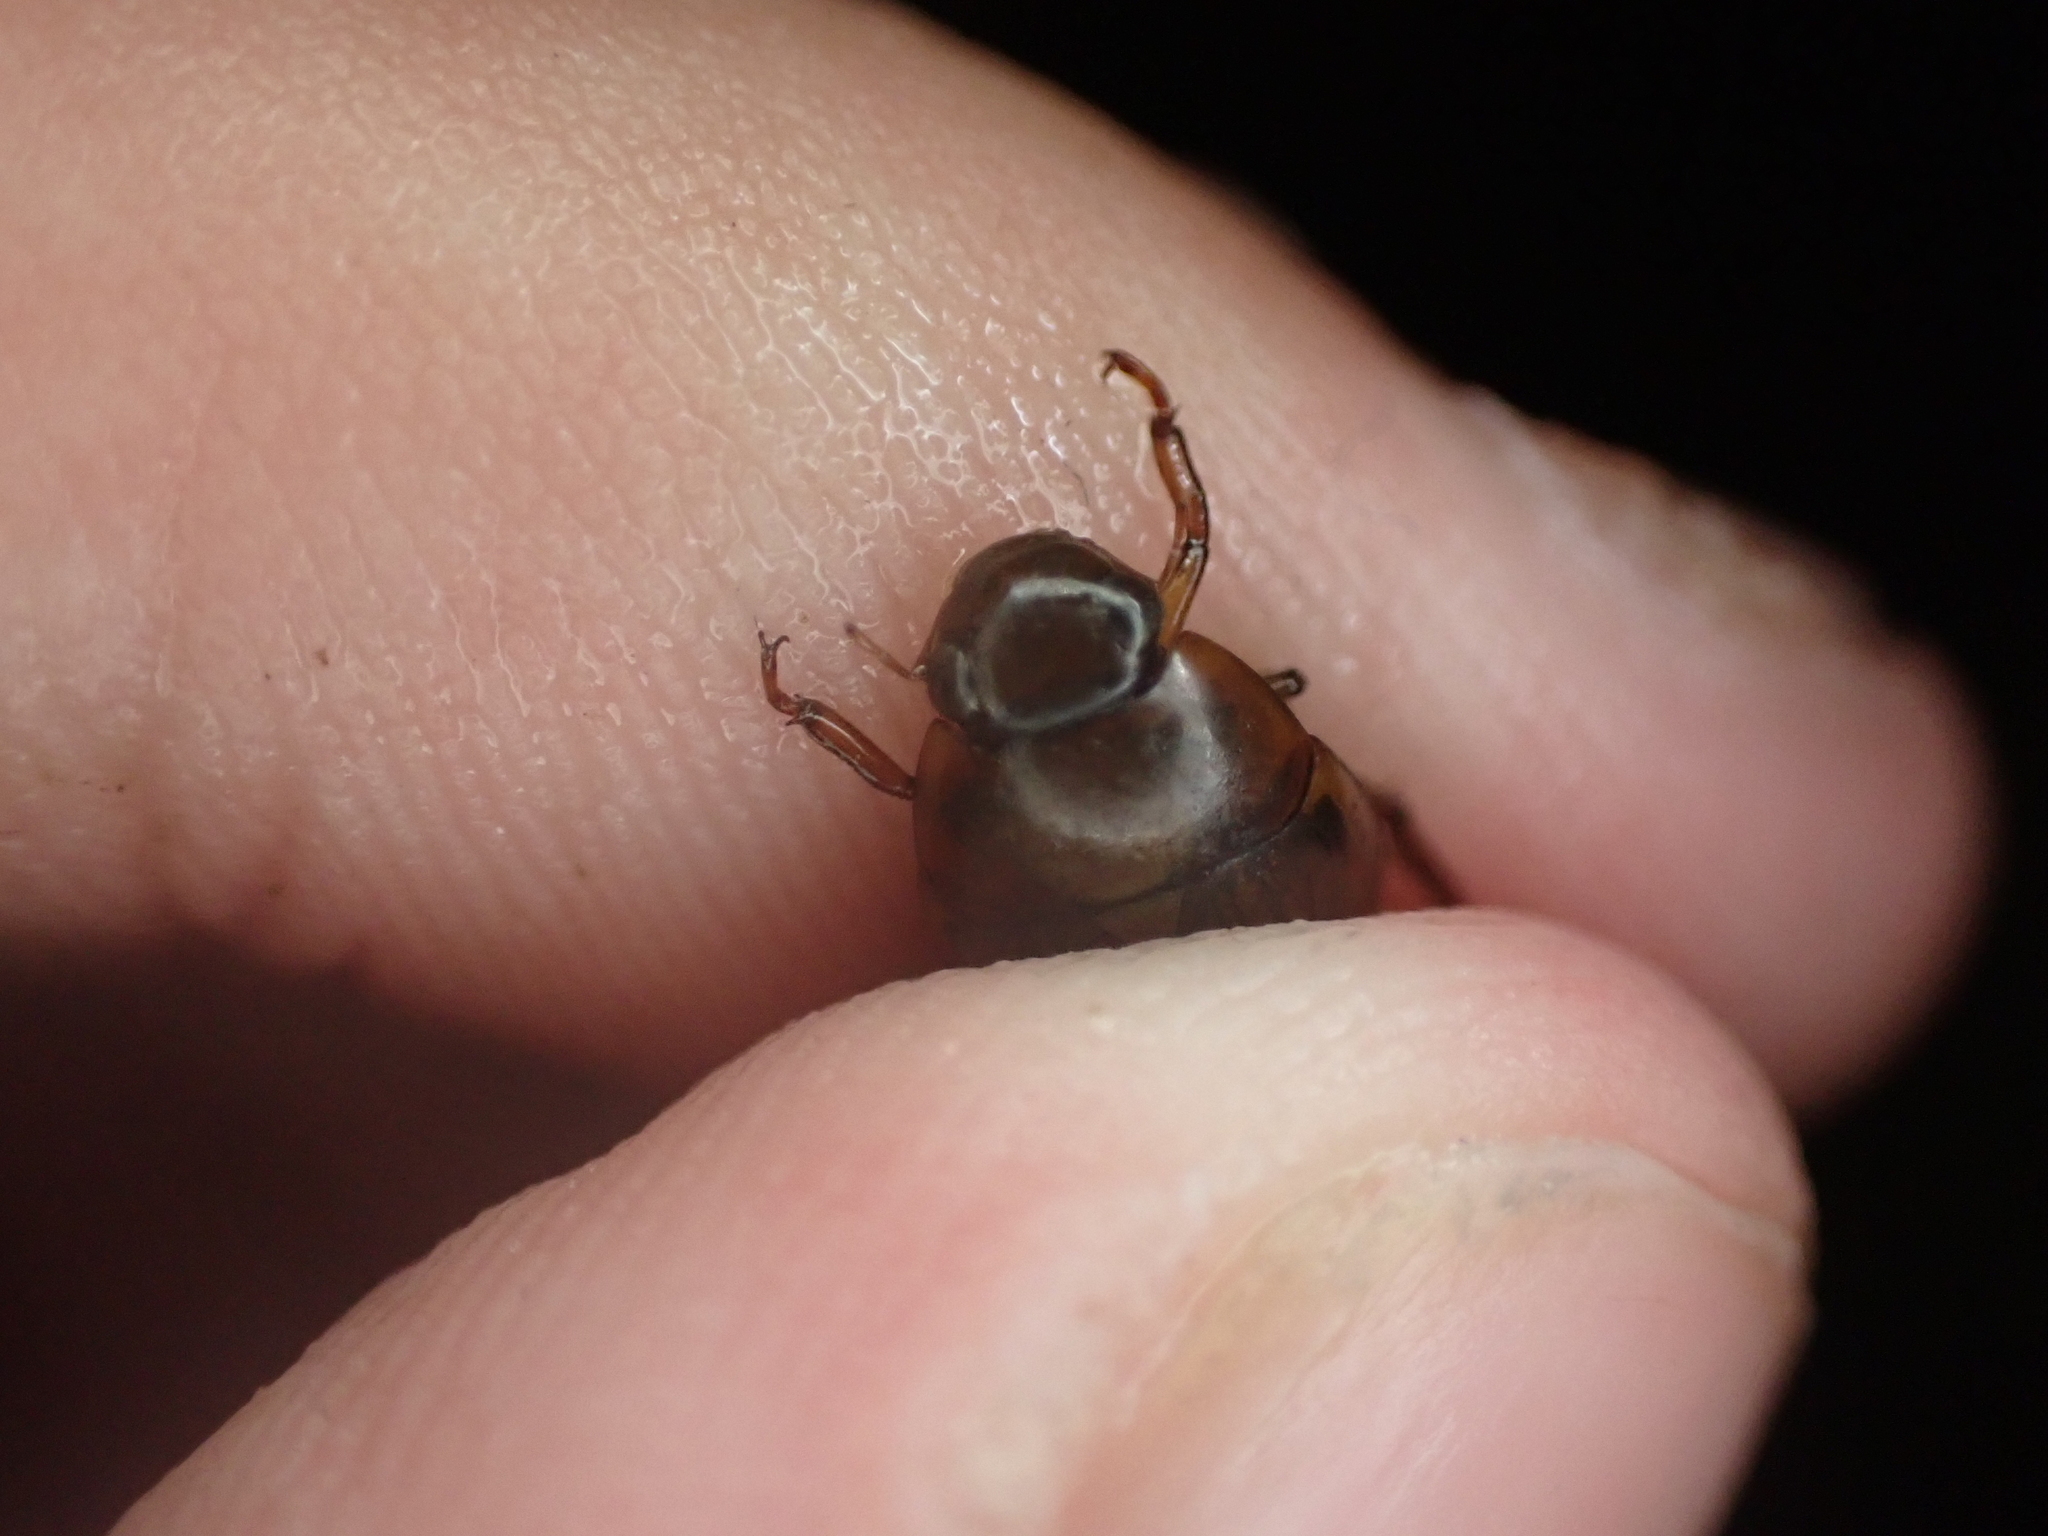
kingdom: Animalia
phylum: Arthropoda
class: Insecta
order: Coleoptera
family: Hydrophilidae
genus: Tropisternus
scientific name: Tropisternus collaris
